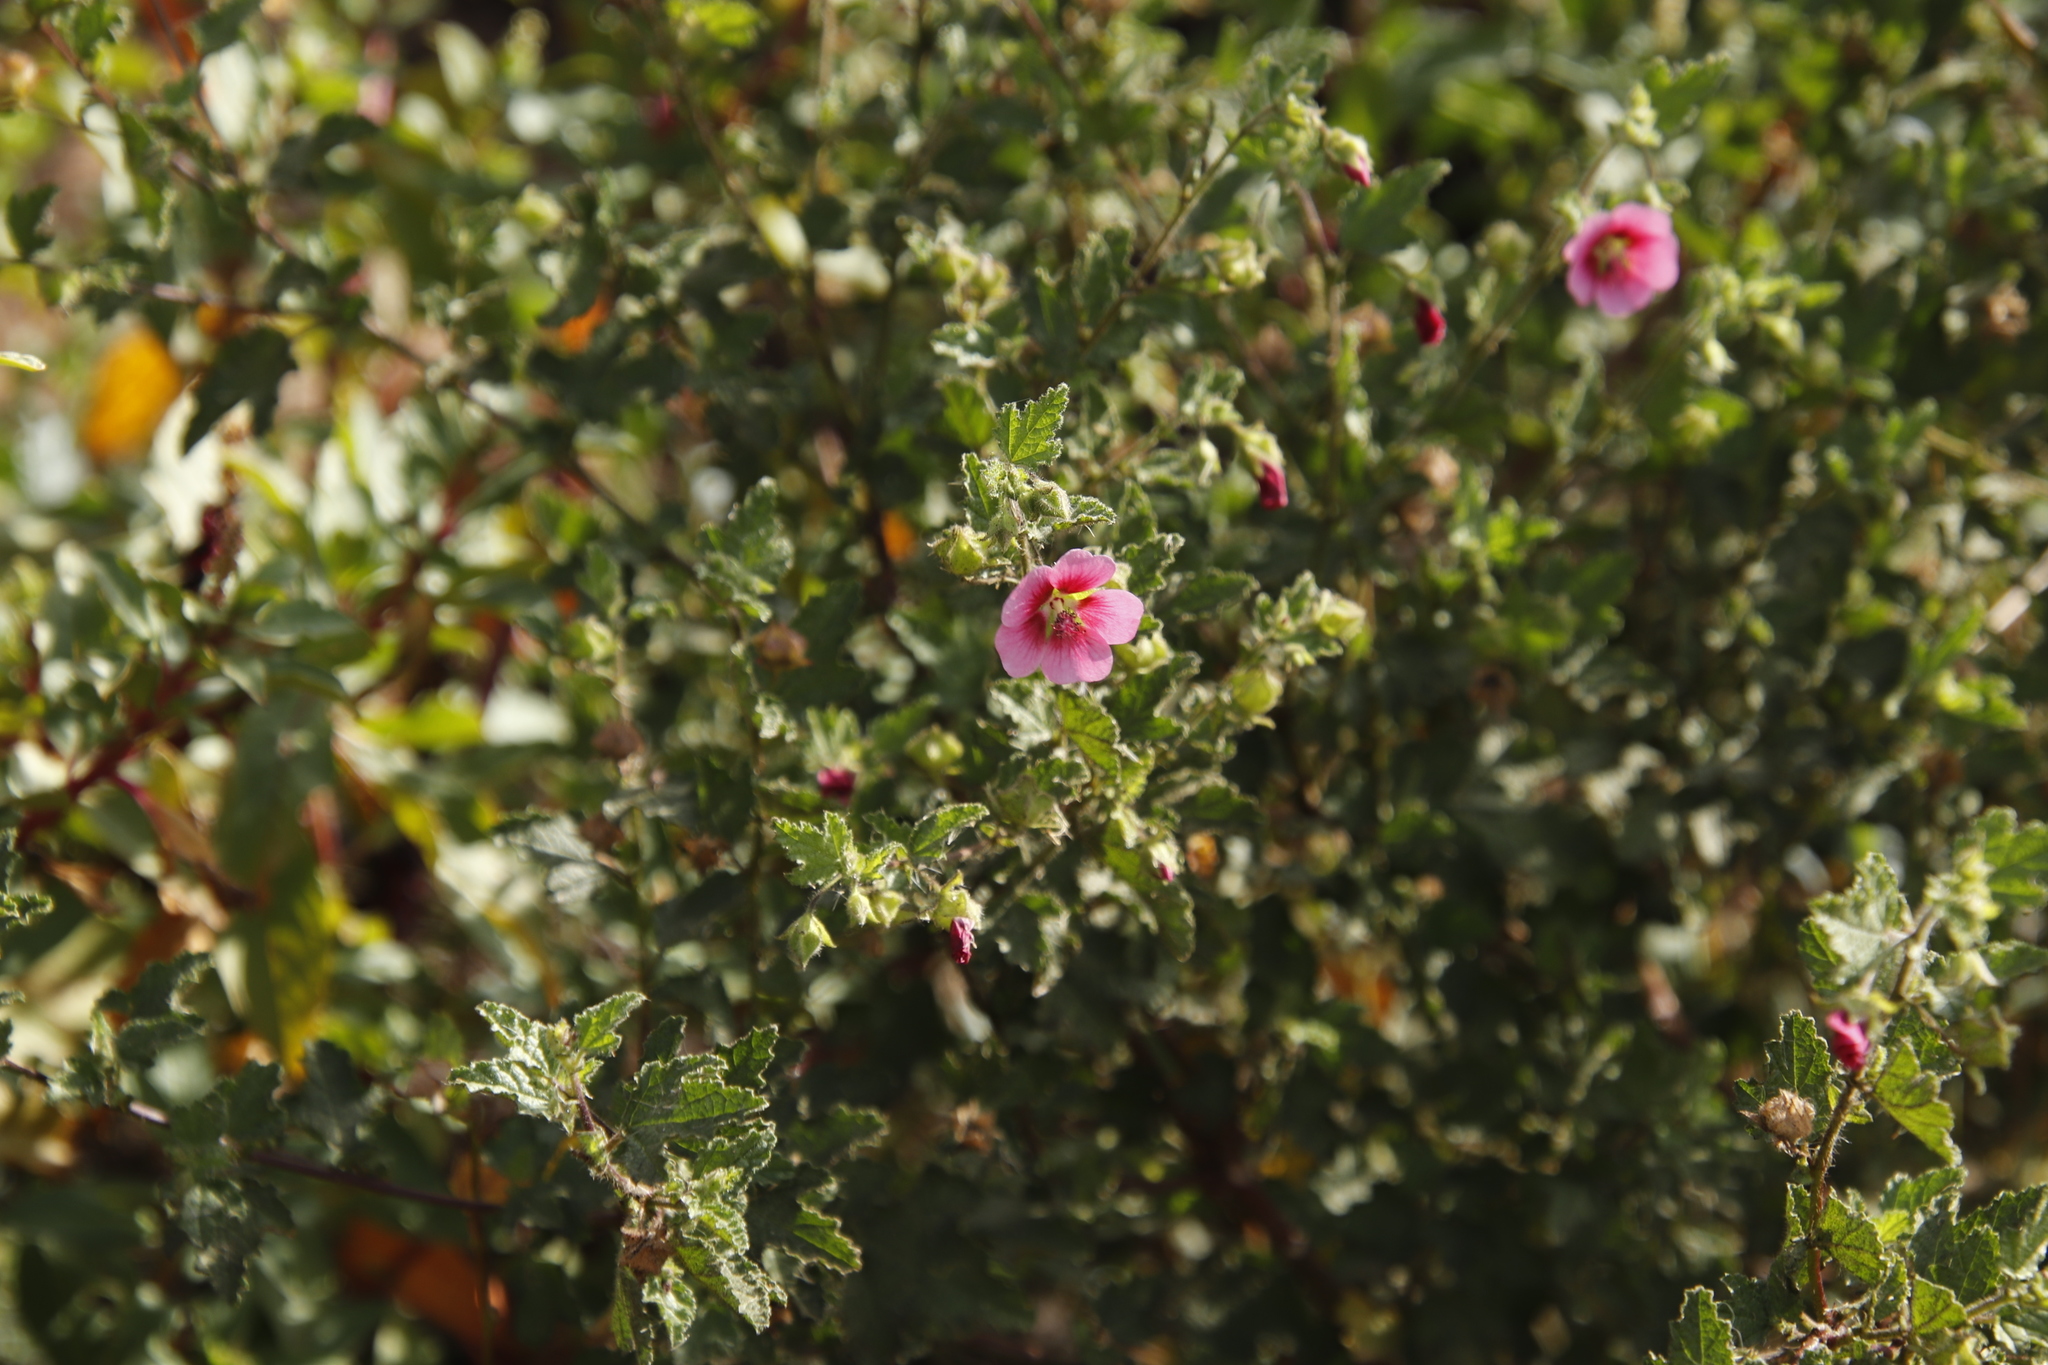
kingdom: Plantae
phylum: Tracheophyta
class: Magnoliopsida
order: Malvales
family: Malvaceae
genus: Anisodontea
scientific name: Anisodontea scabrosa
